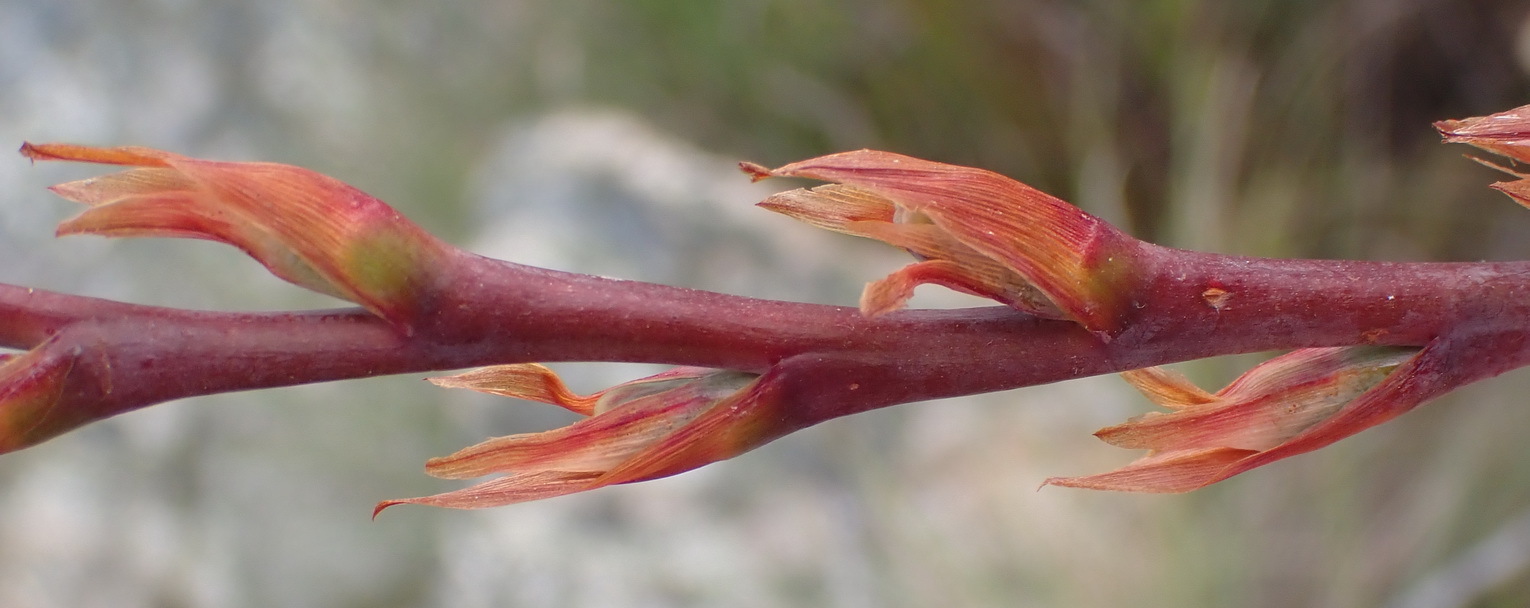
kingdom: Plantae
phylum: Tracheophyta
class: Liliopsida
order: Asparagales
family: Iridaceae
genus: Watsonia
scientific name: Watsonia wilmaniae
